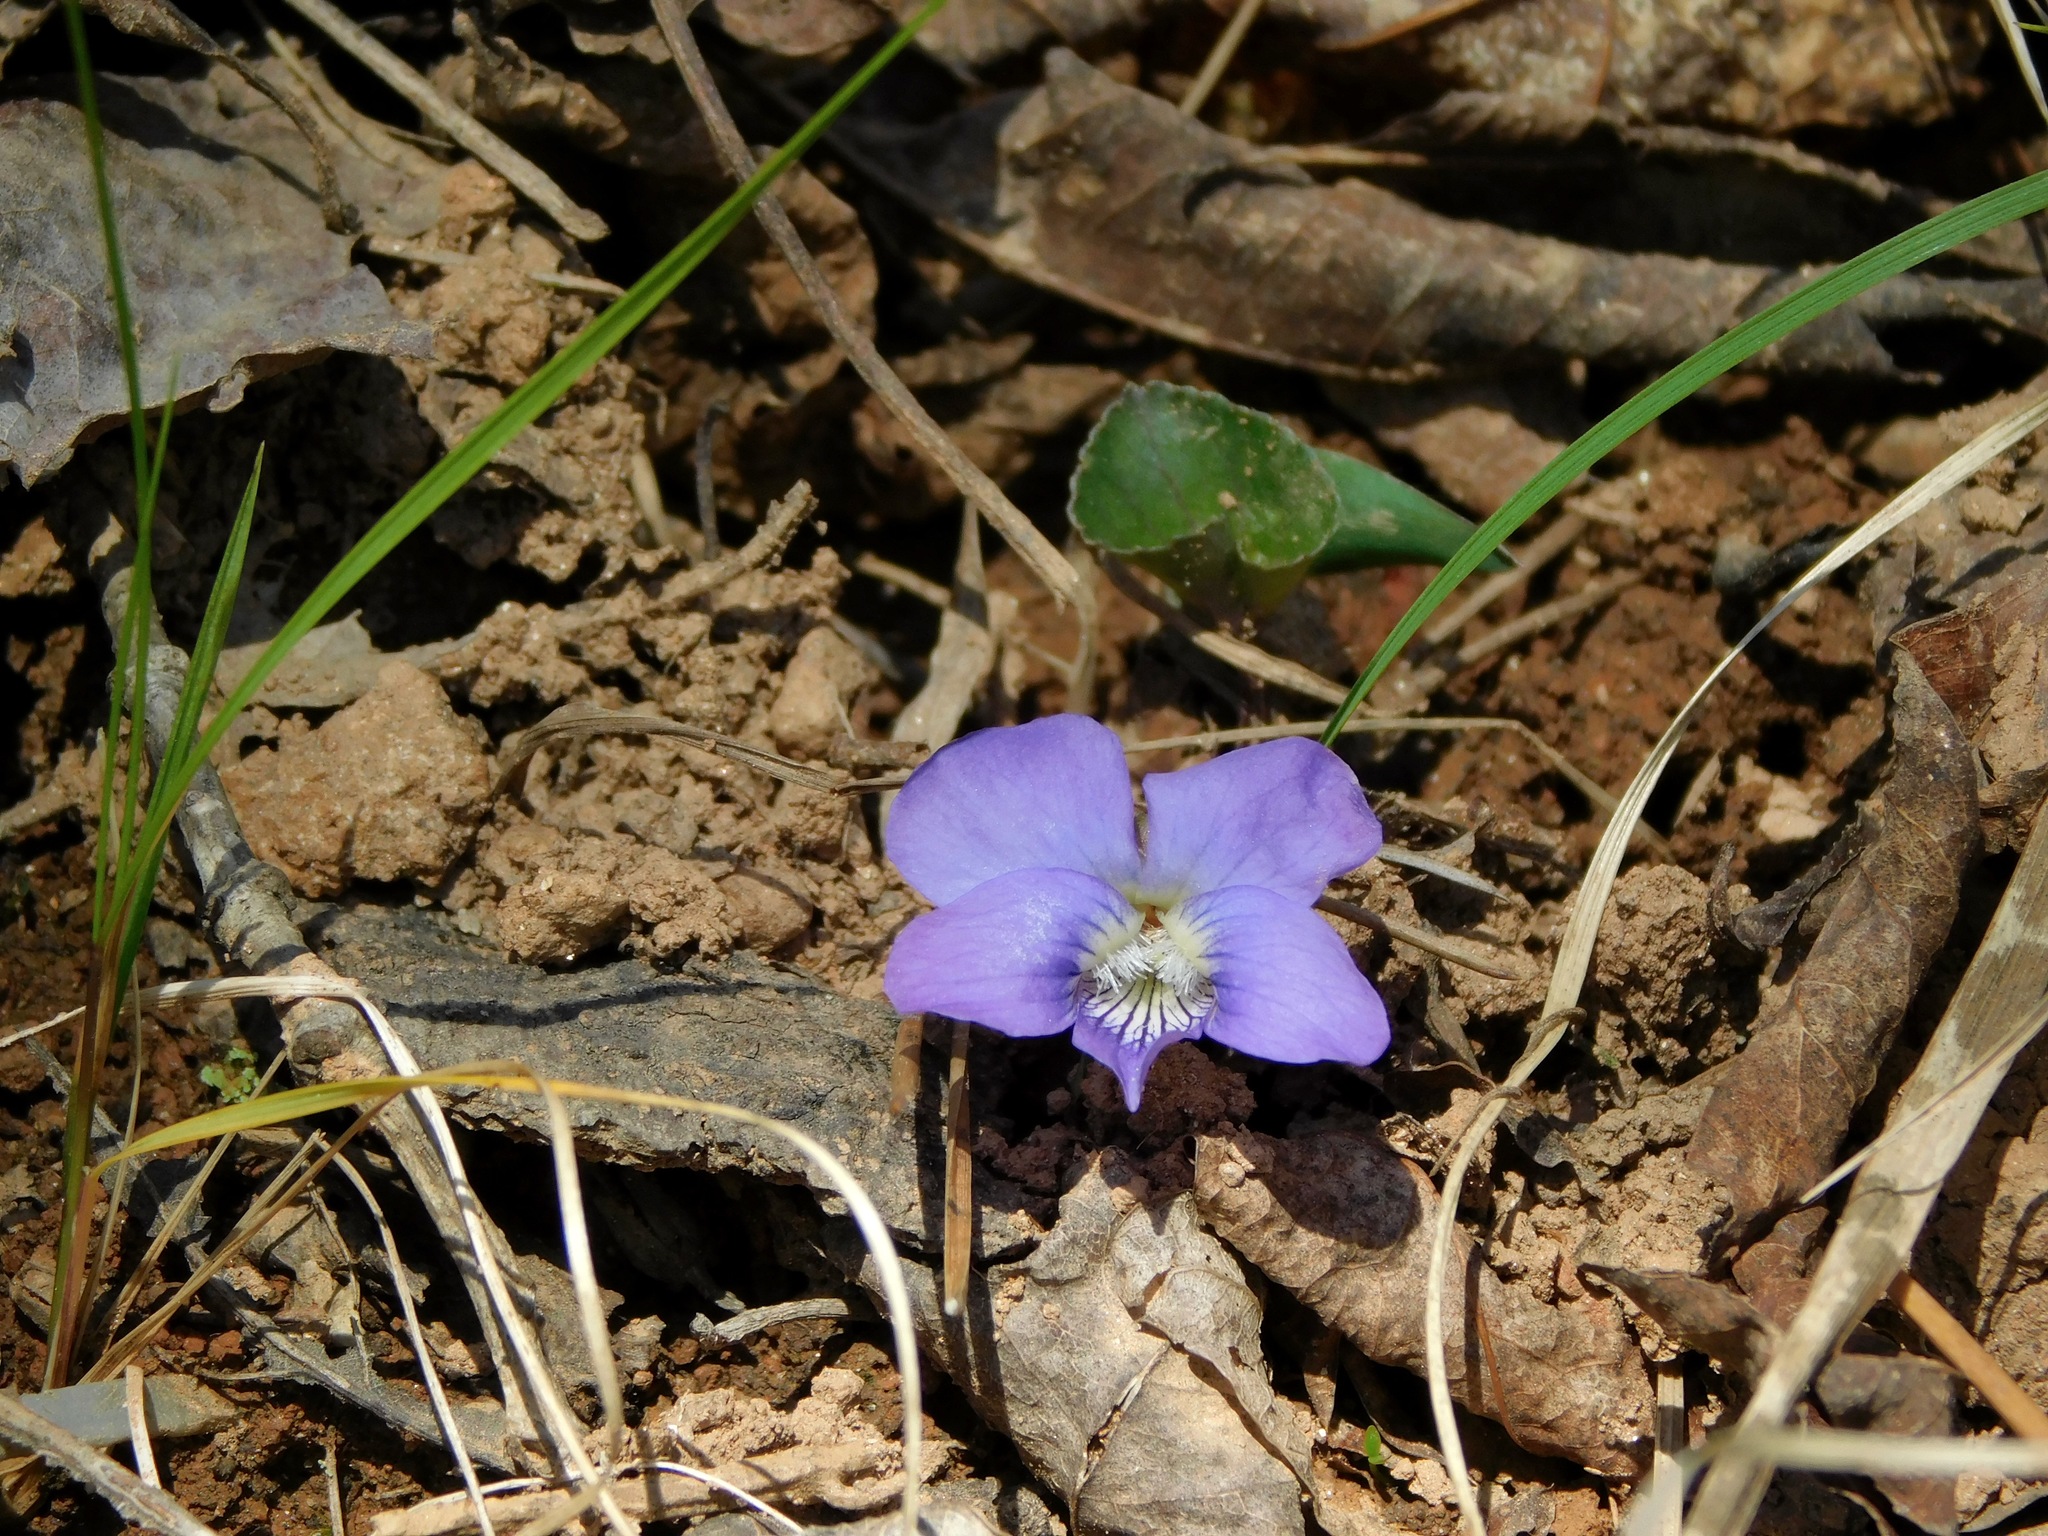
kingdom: Plantae
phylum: Tracheophyta
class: Magnoliopsida
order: Malpighiales
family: Violaceae
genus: Viola
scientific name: Viola hirsutula
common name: Southern wood violet
